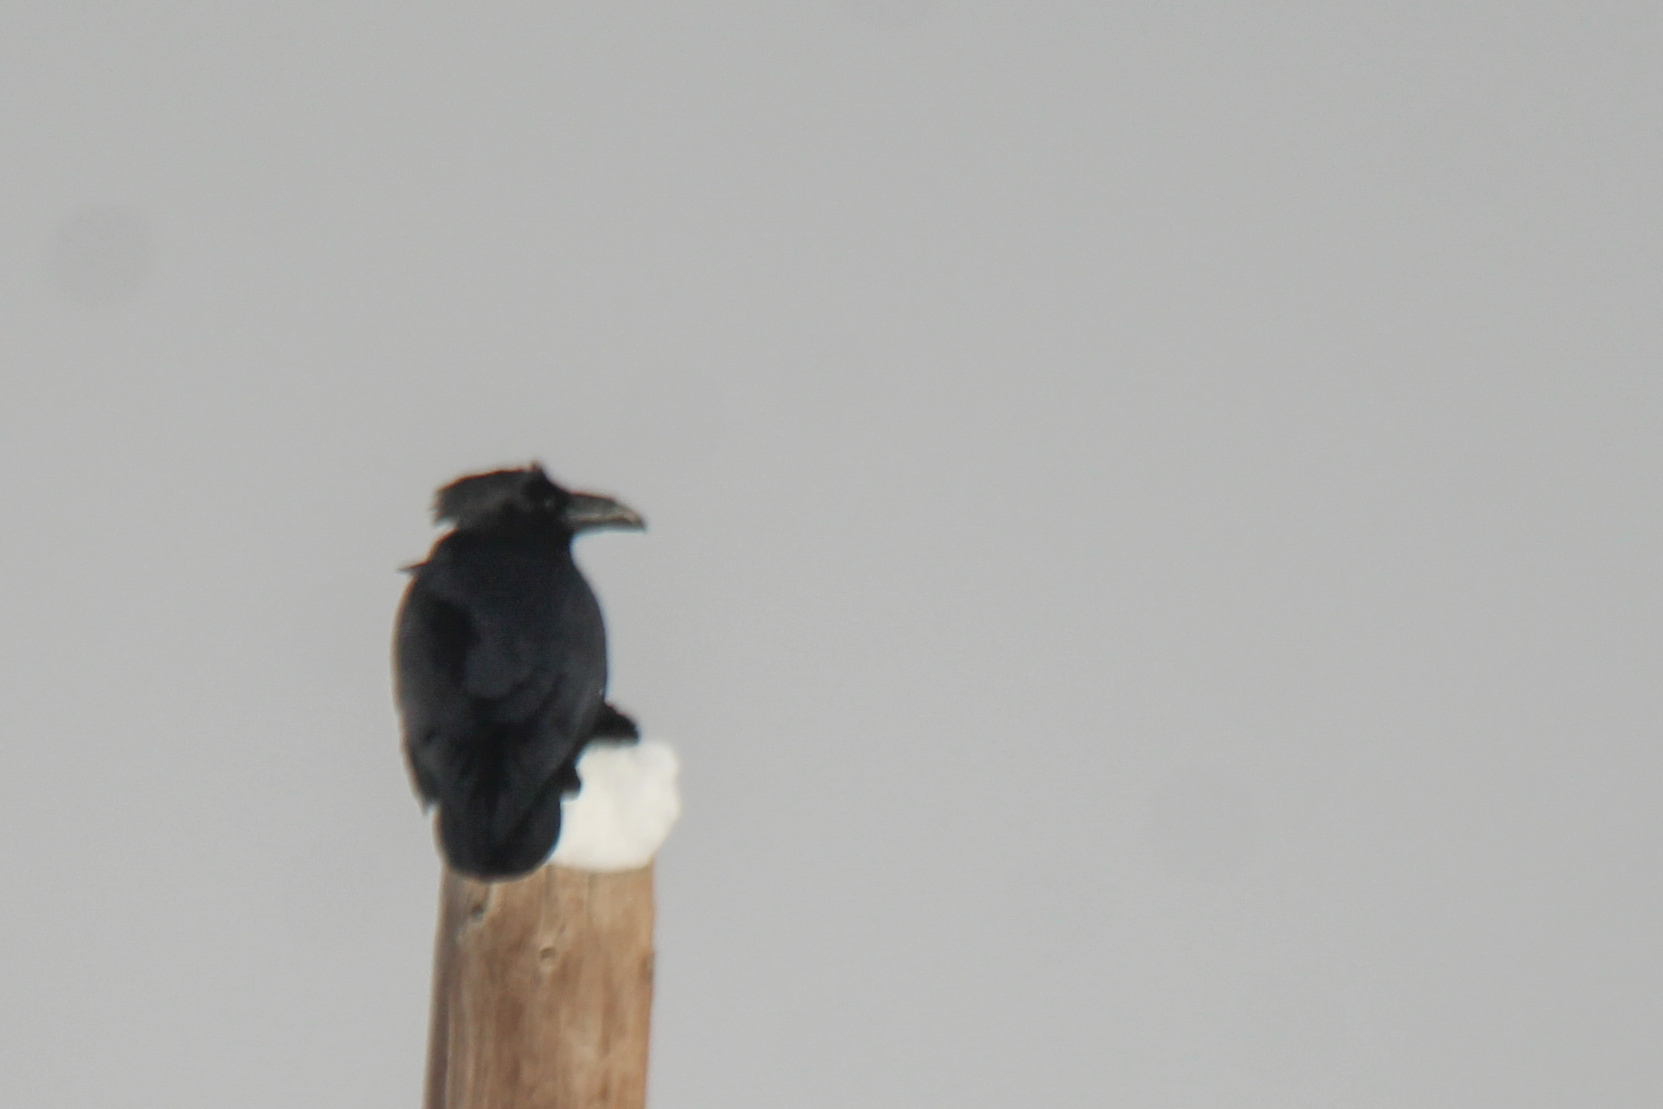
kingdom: Animalia
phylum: Chordata
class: Aves
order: Passeriformes
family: Corvidae
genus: Corvus
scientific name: Corvus corax
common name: Common raven
